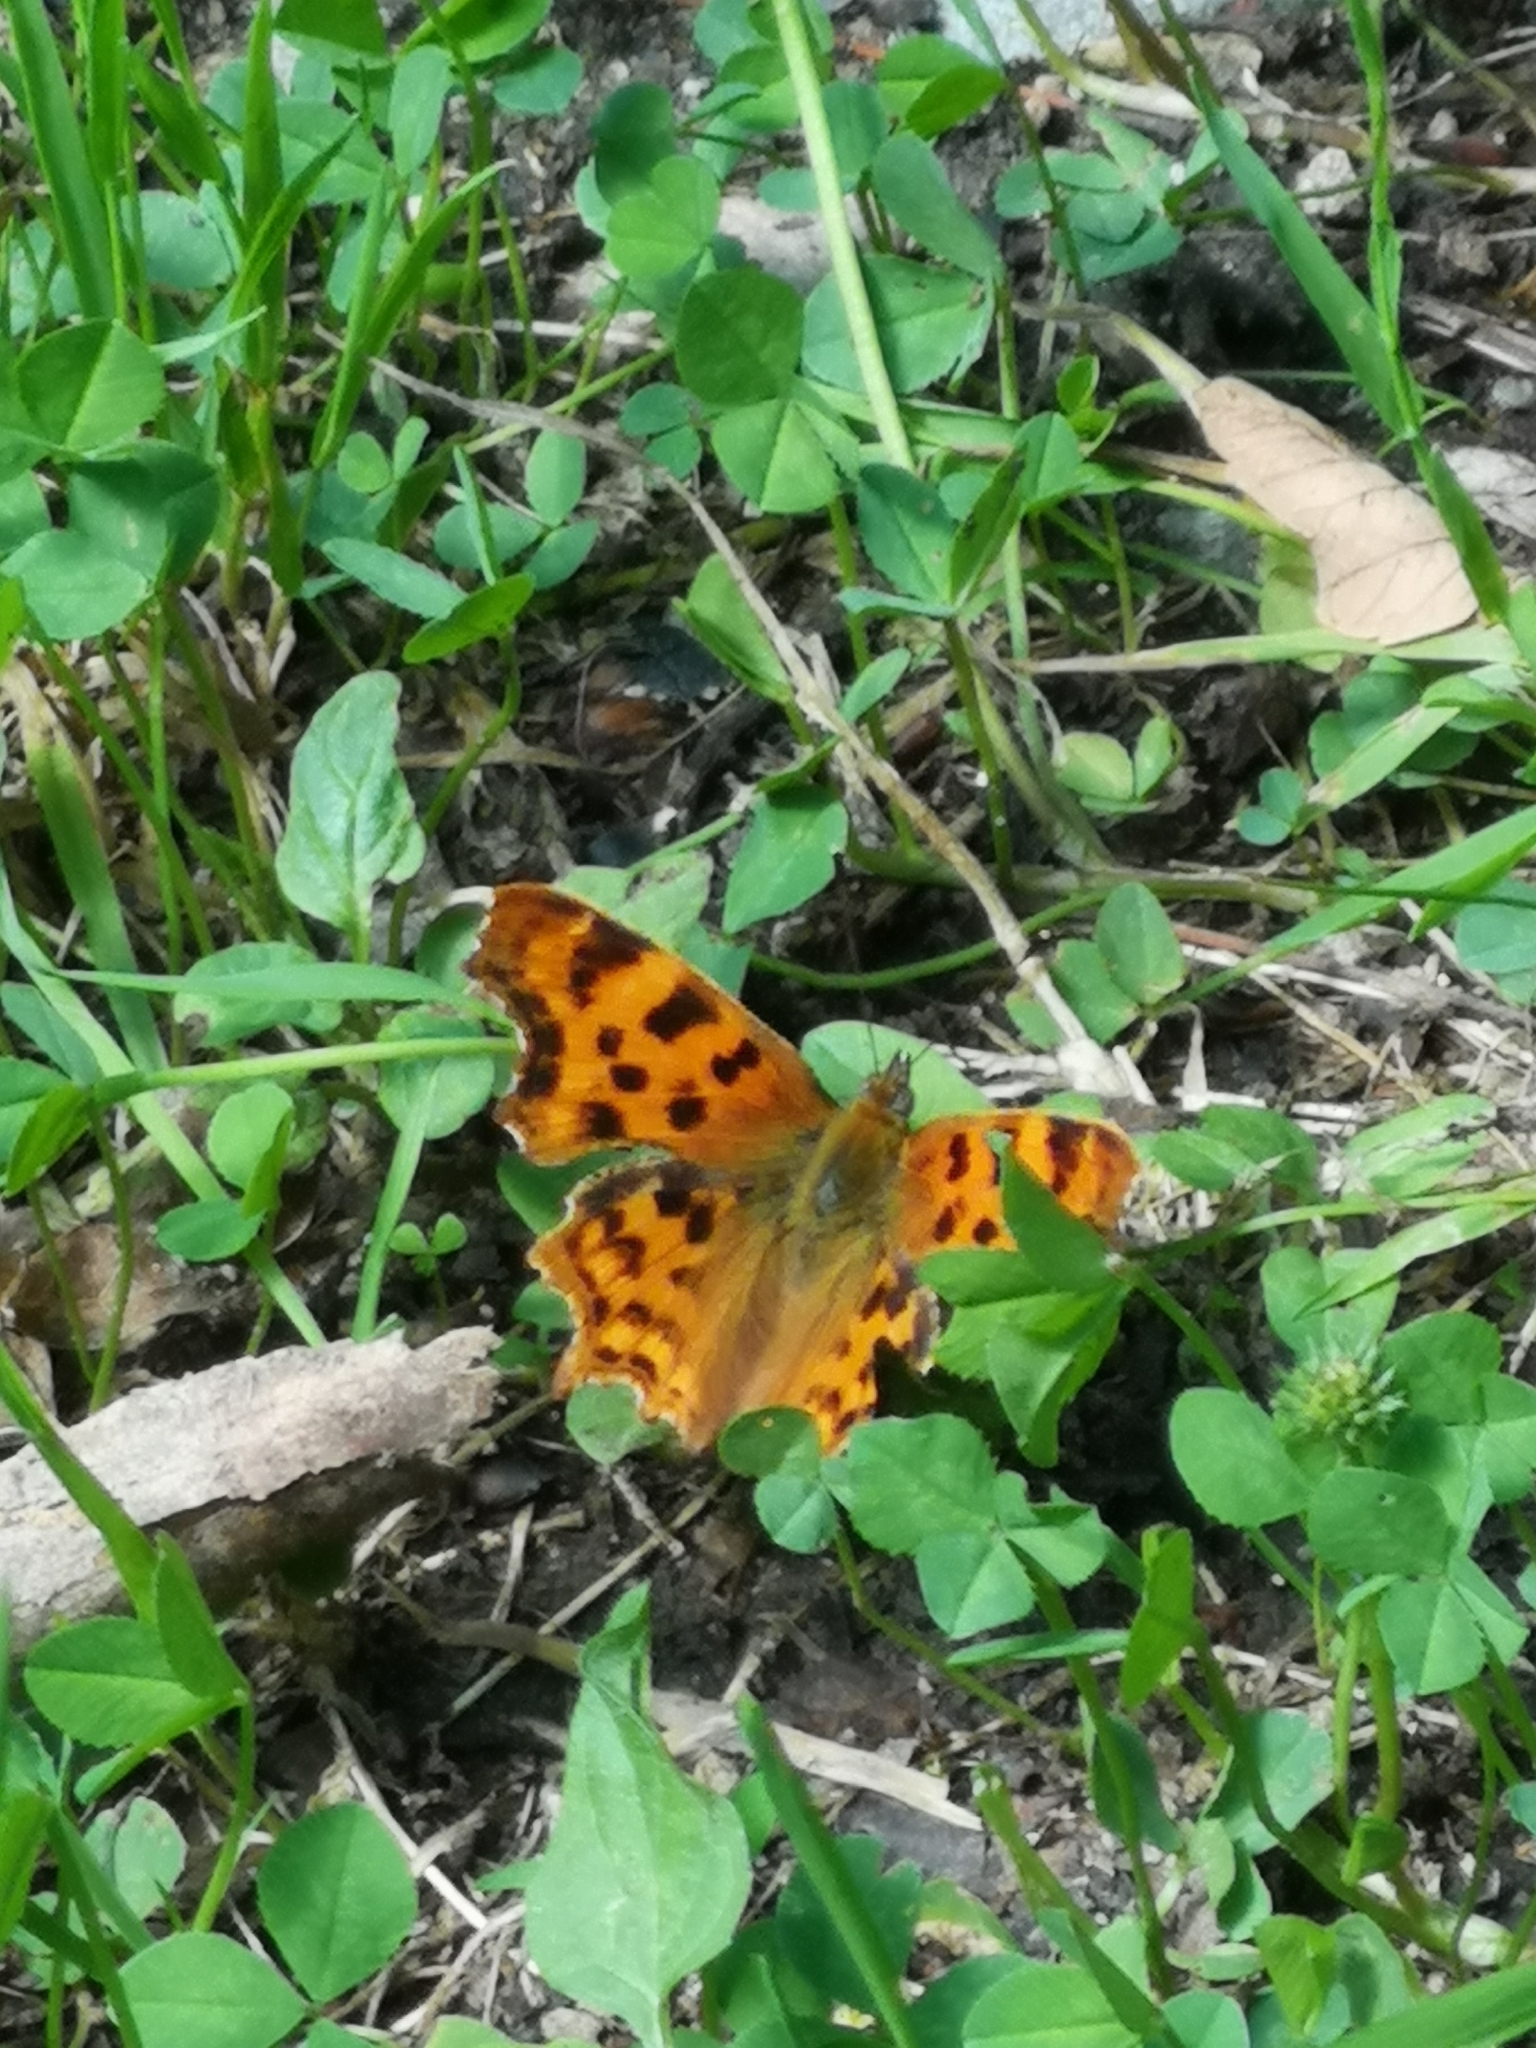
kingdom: Animalia
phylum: Arthropoda
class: Insecta
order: Lepidoptera
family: Nymphalidae
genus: Polygonia
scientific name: Polygonia c-album
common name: Comma
